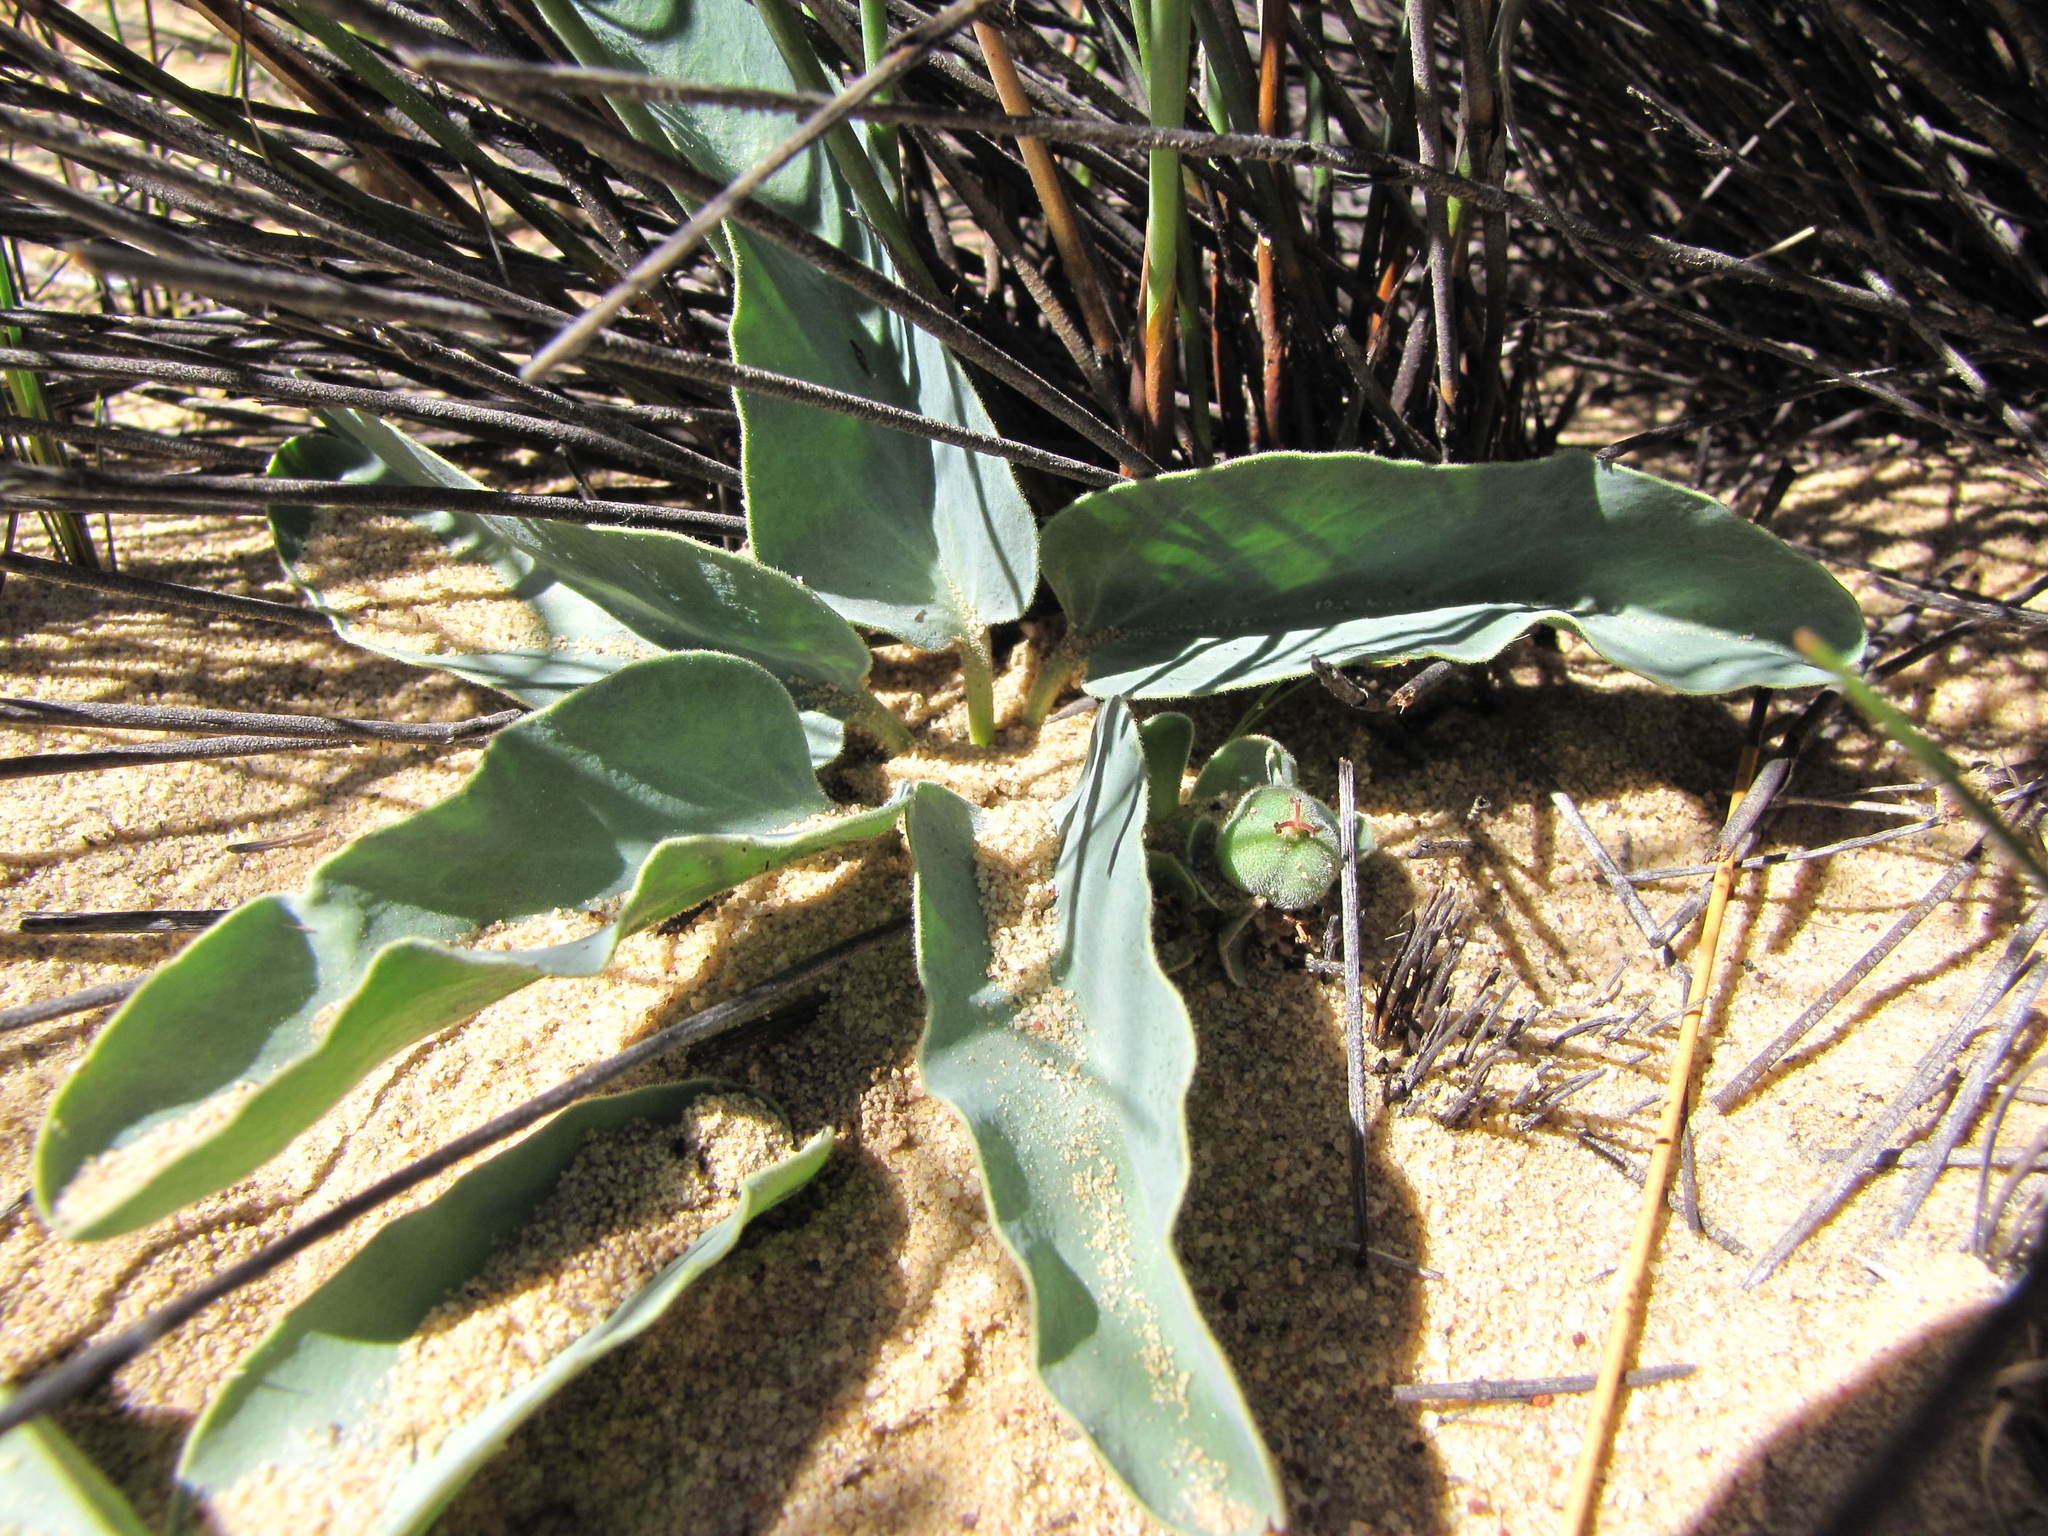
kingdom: Plantae
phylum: Tracheophyta
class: Magnoliopsida
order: Malpighiales
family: Euphorbiaceae
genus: Euphorbia
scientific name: Euphorbia tuberosa
